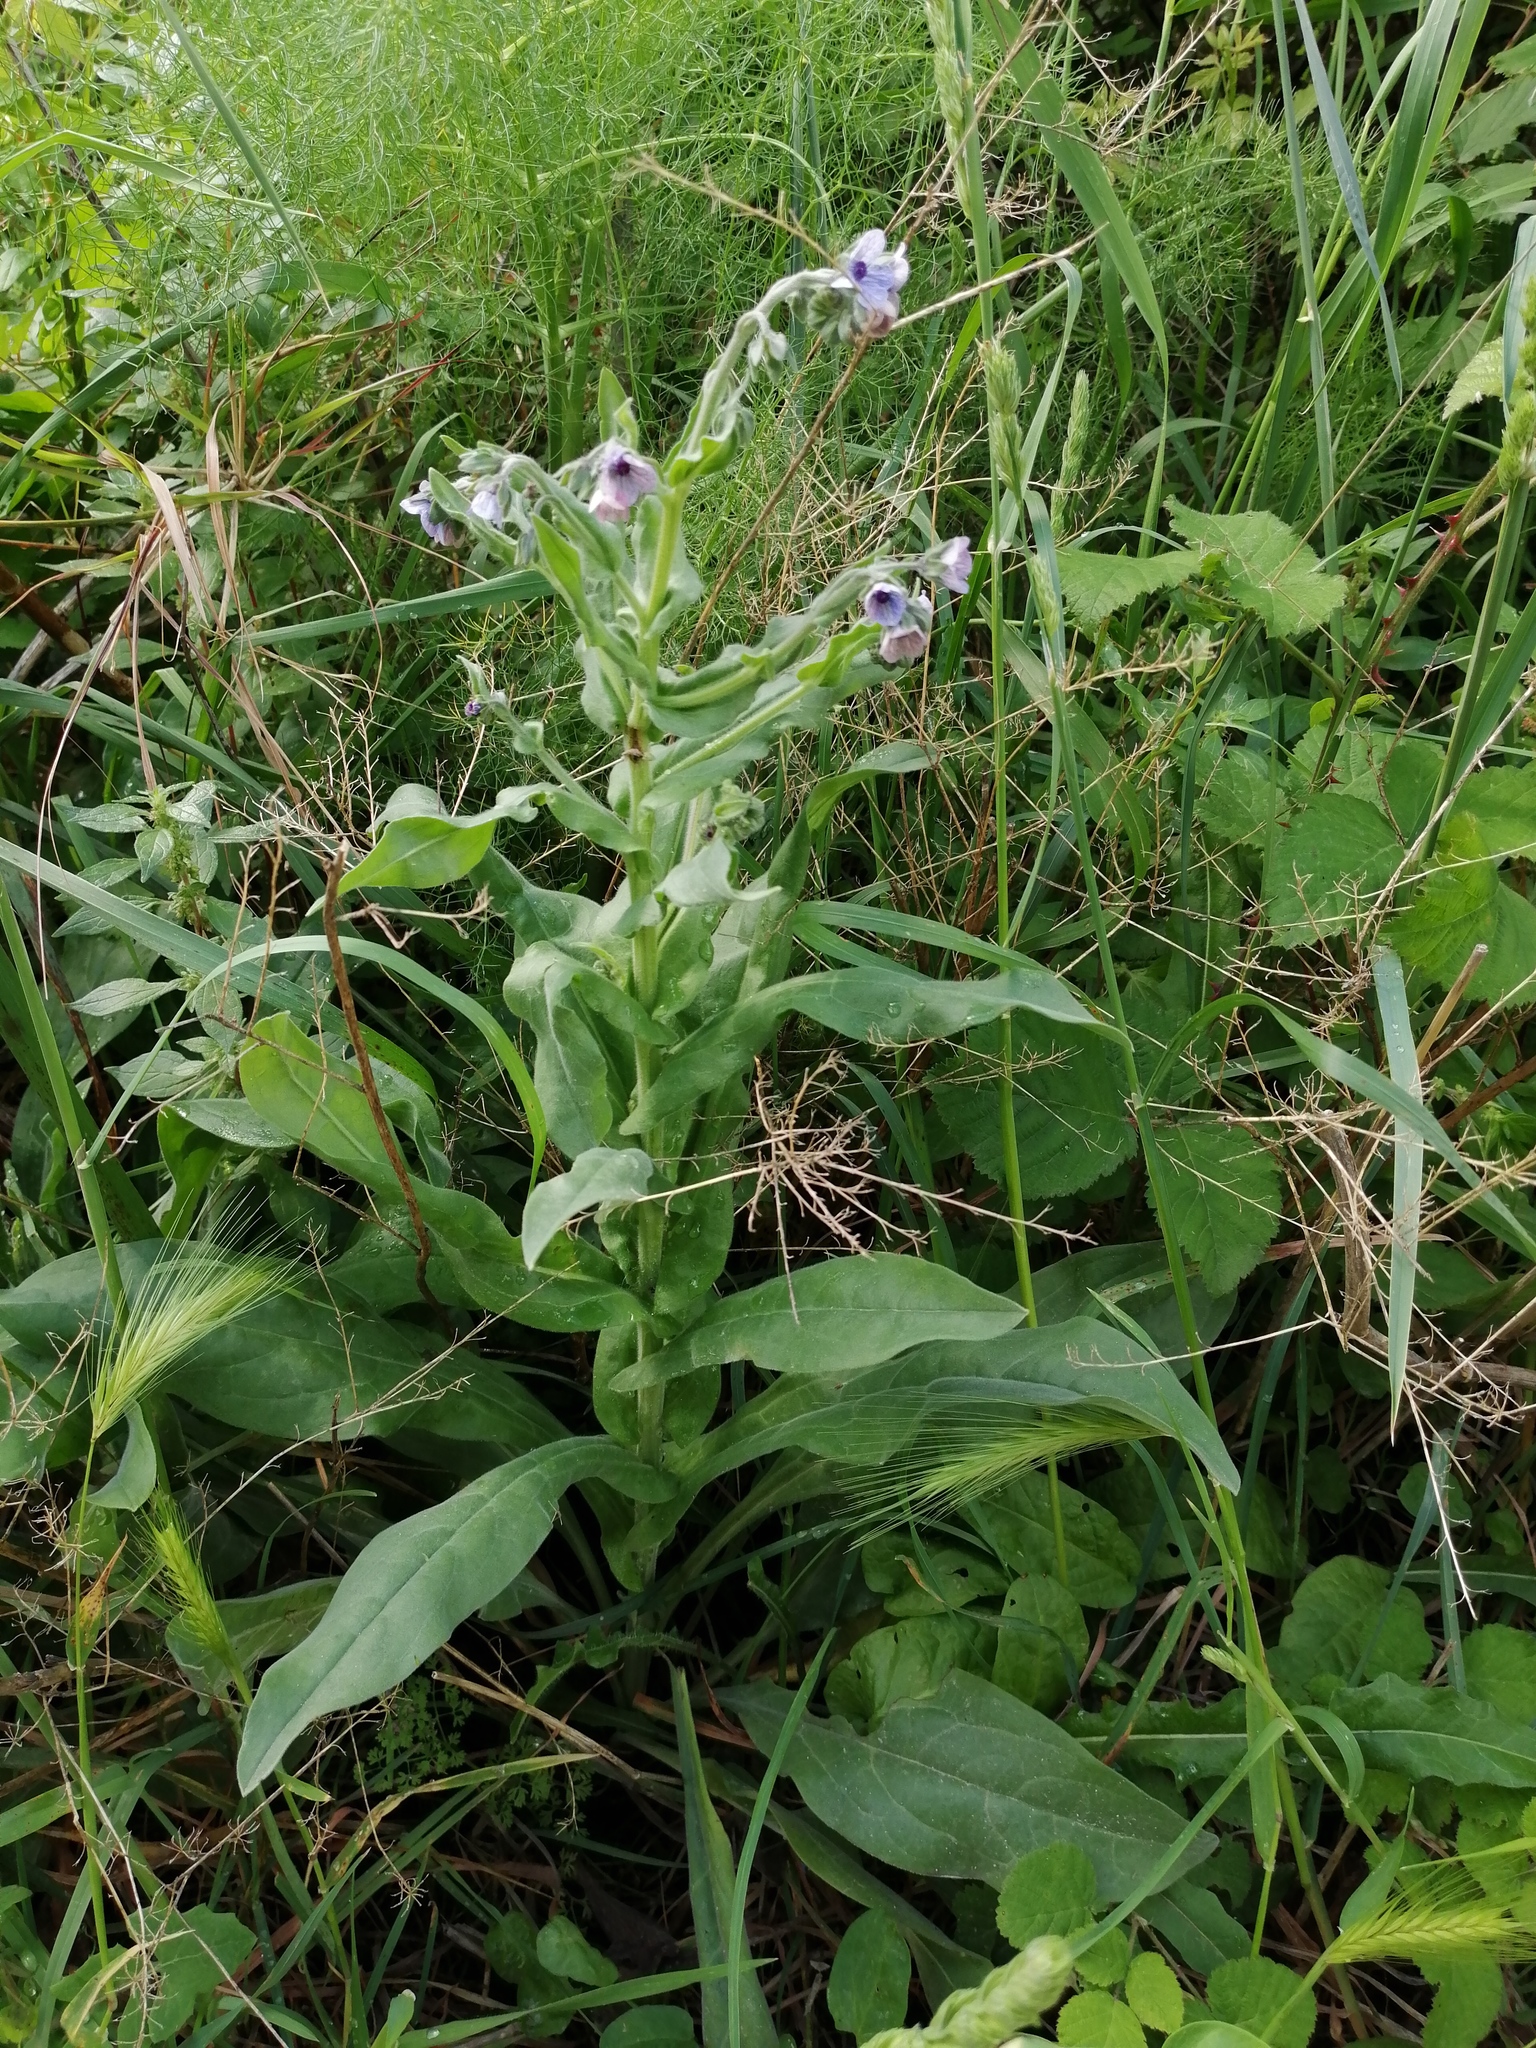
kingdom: Plantae
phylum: Tracheophyta
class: Magnoliopsida
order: Boraginales
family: Boraginaceae
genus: Cynoglossum
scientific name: Cynoglossum creticum
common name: Blue hound's tongue
